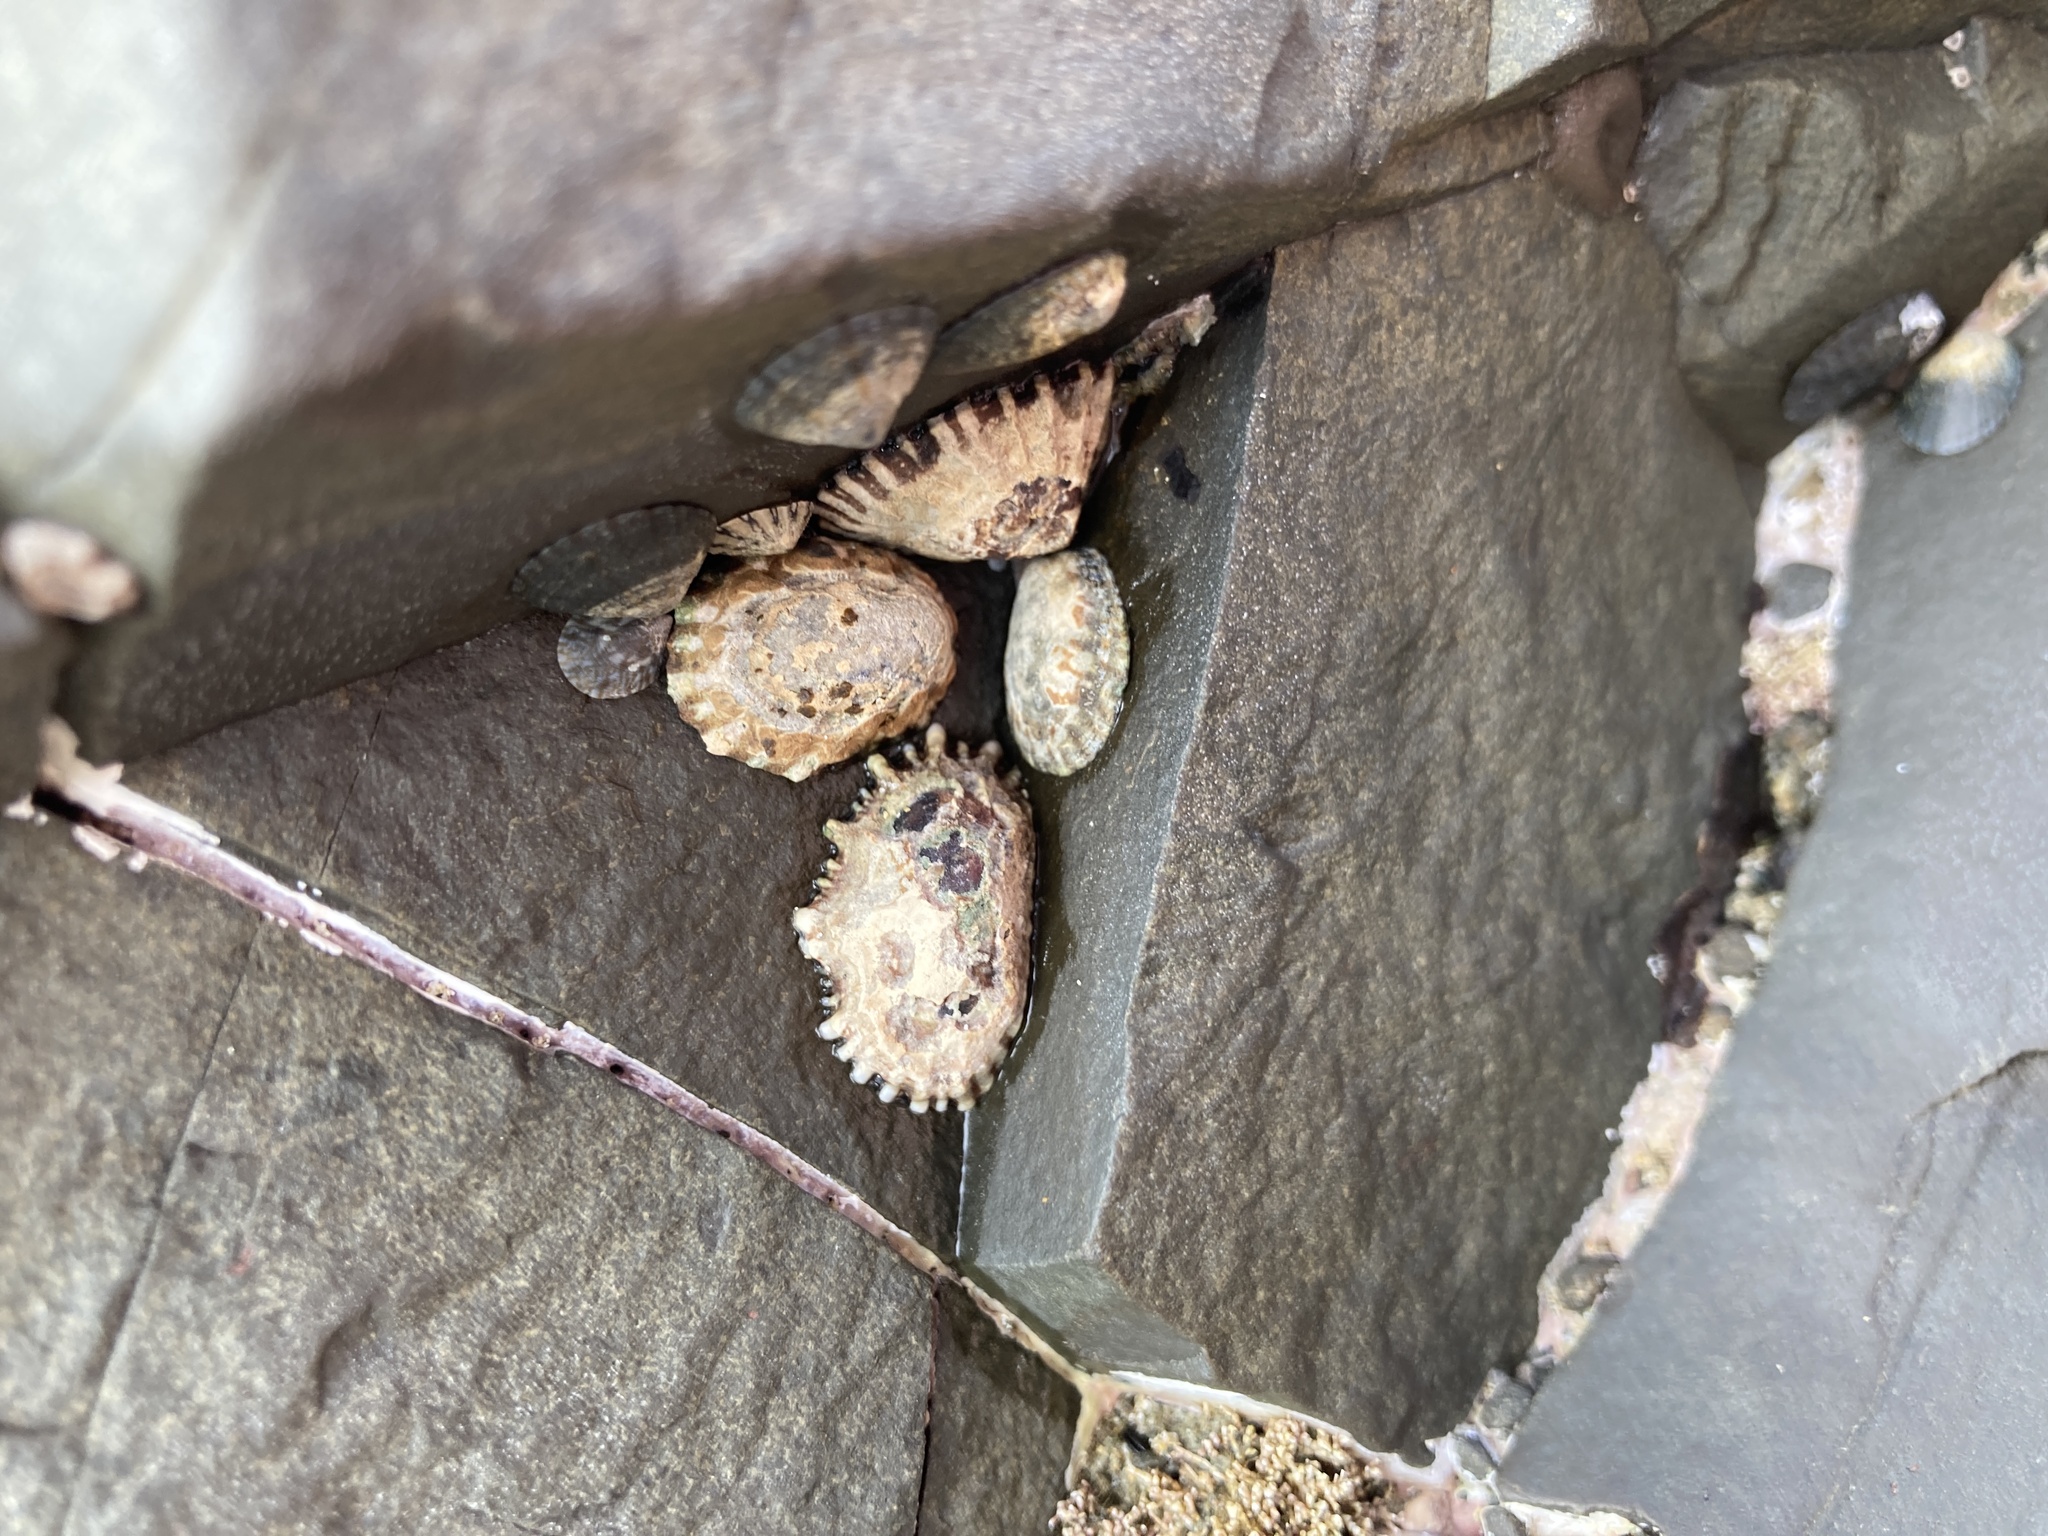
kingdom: Animalia
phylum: Mollusca
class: Gastropoda
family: Nacellidae
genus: Cellana
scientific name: Cellana radians
